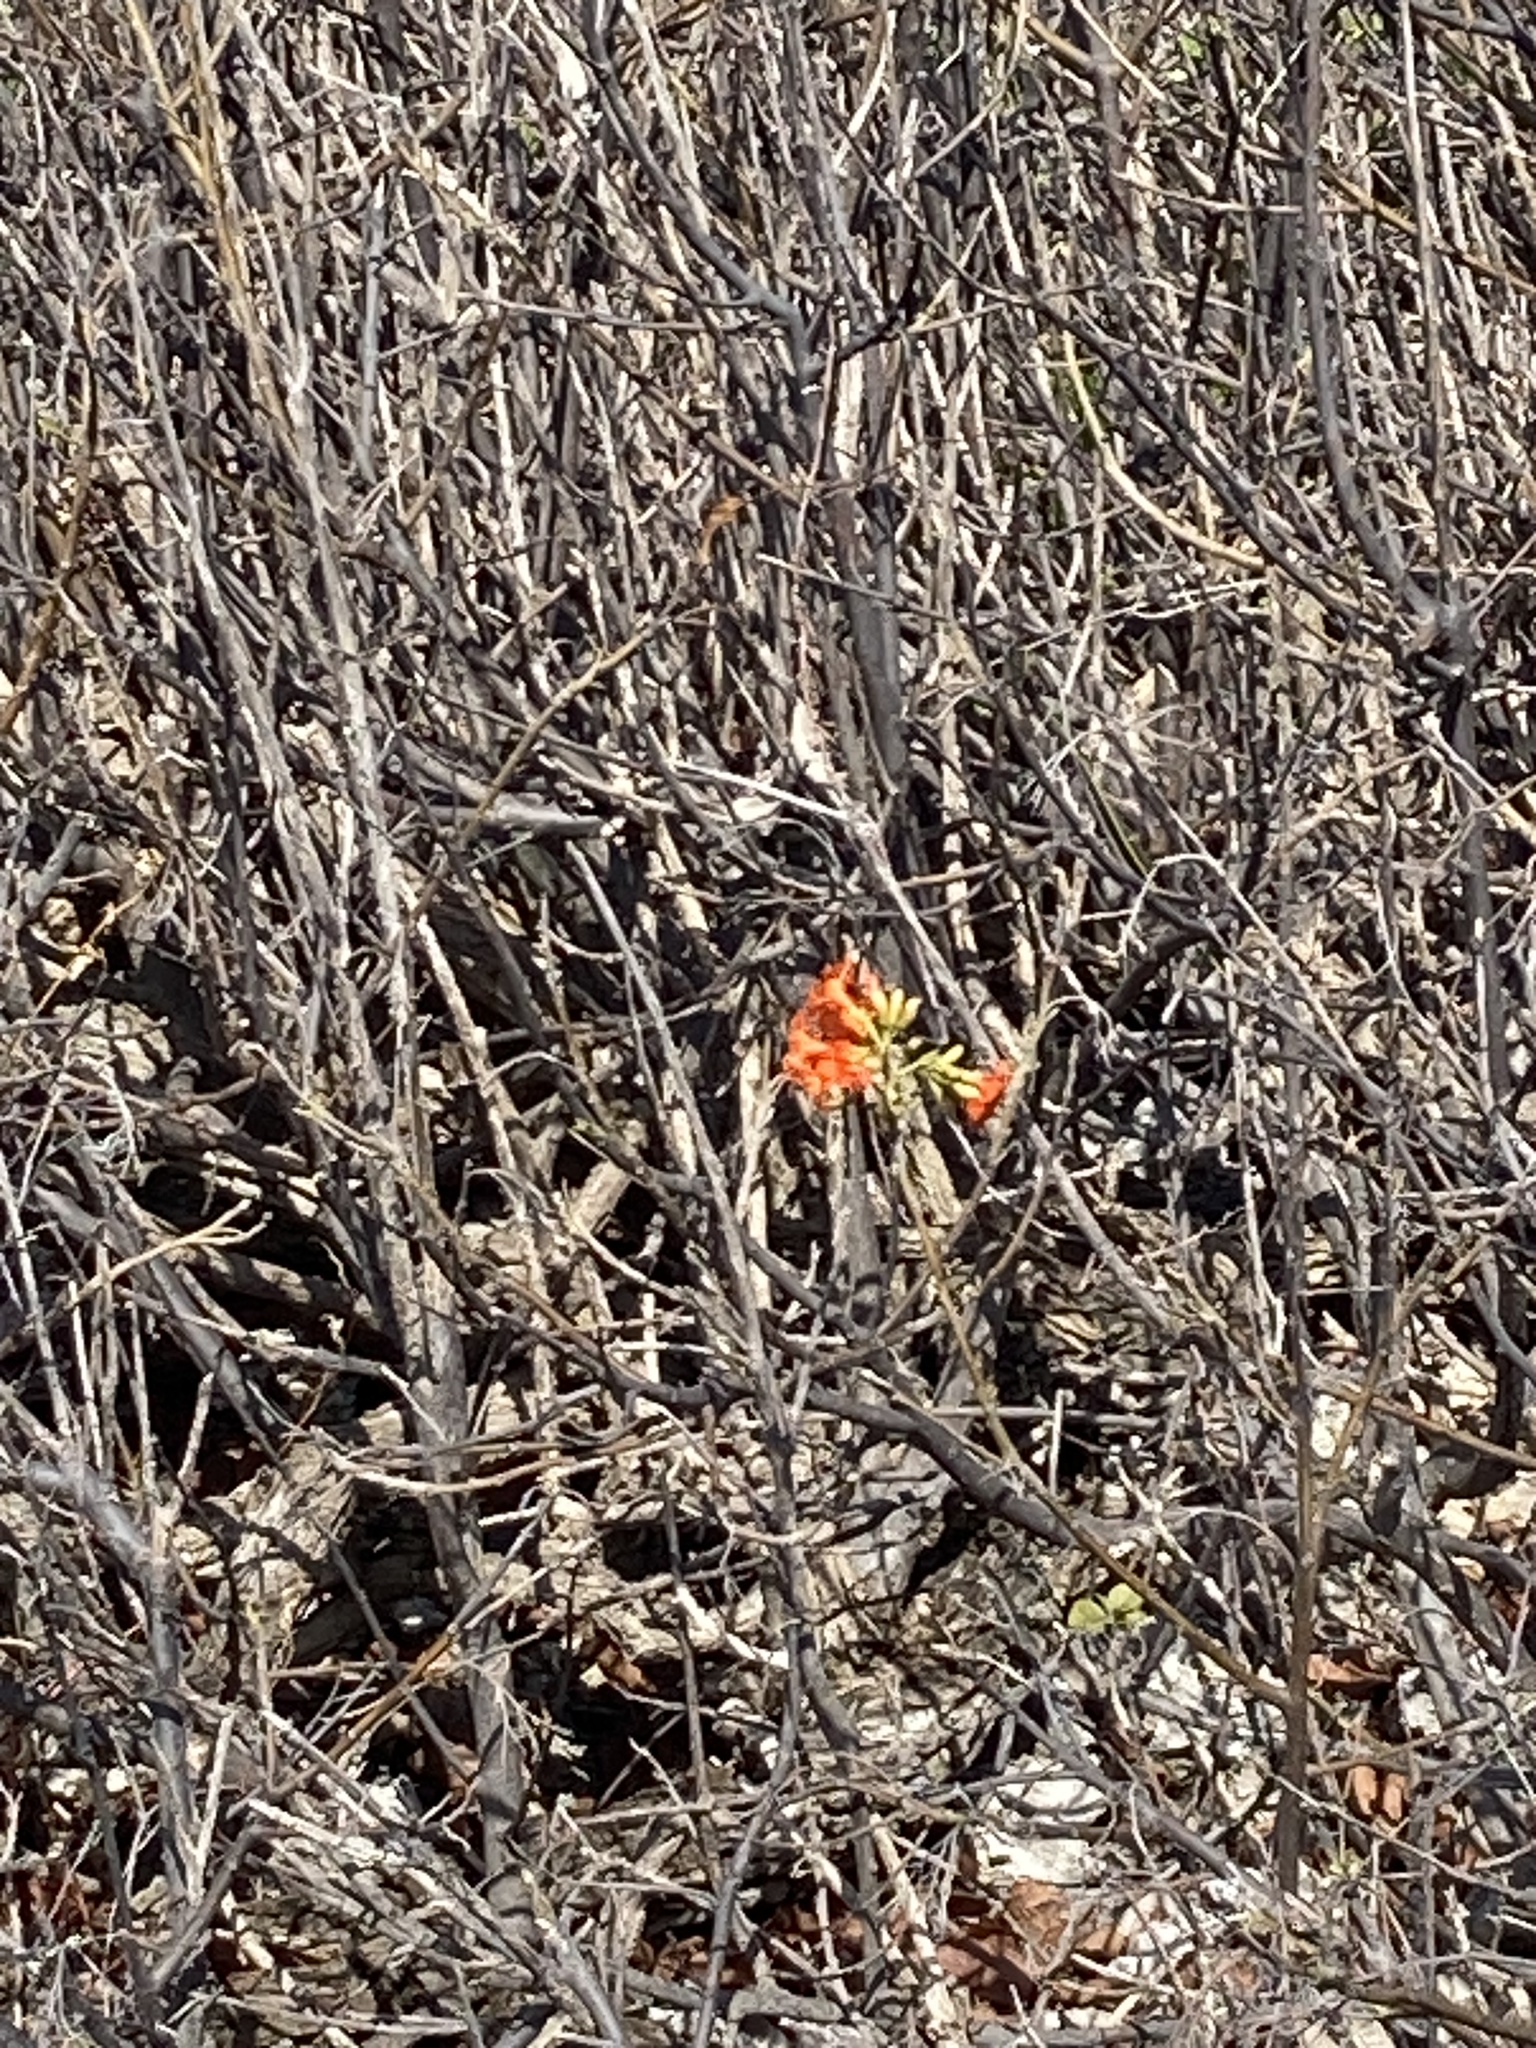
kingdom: Plantae
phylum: Tracheophyta
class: Magnoliopsida
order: Boraginales
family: Cordiaceae
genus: Cordia
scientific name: Cordia sebestena
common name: Largeleaf geigertree
